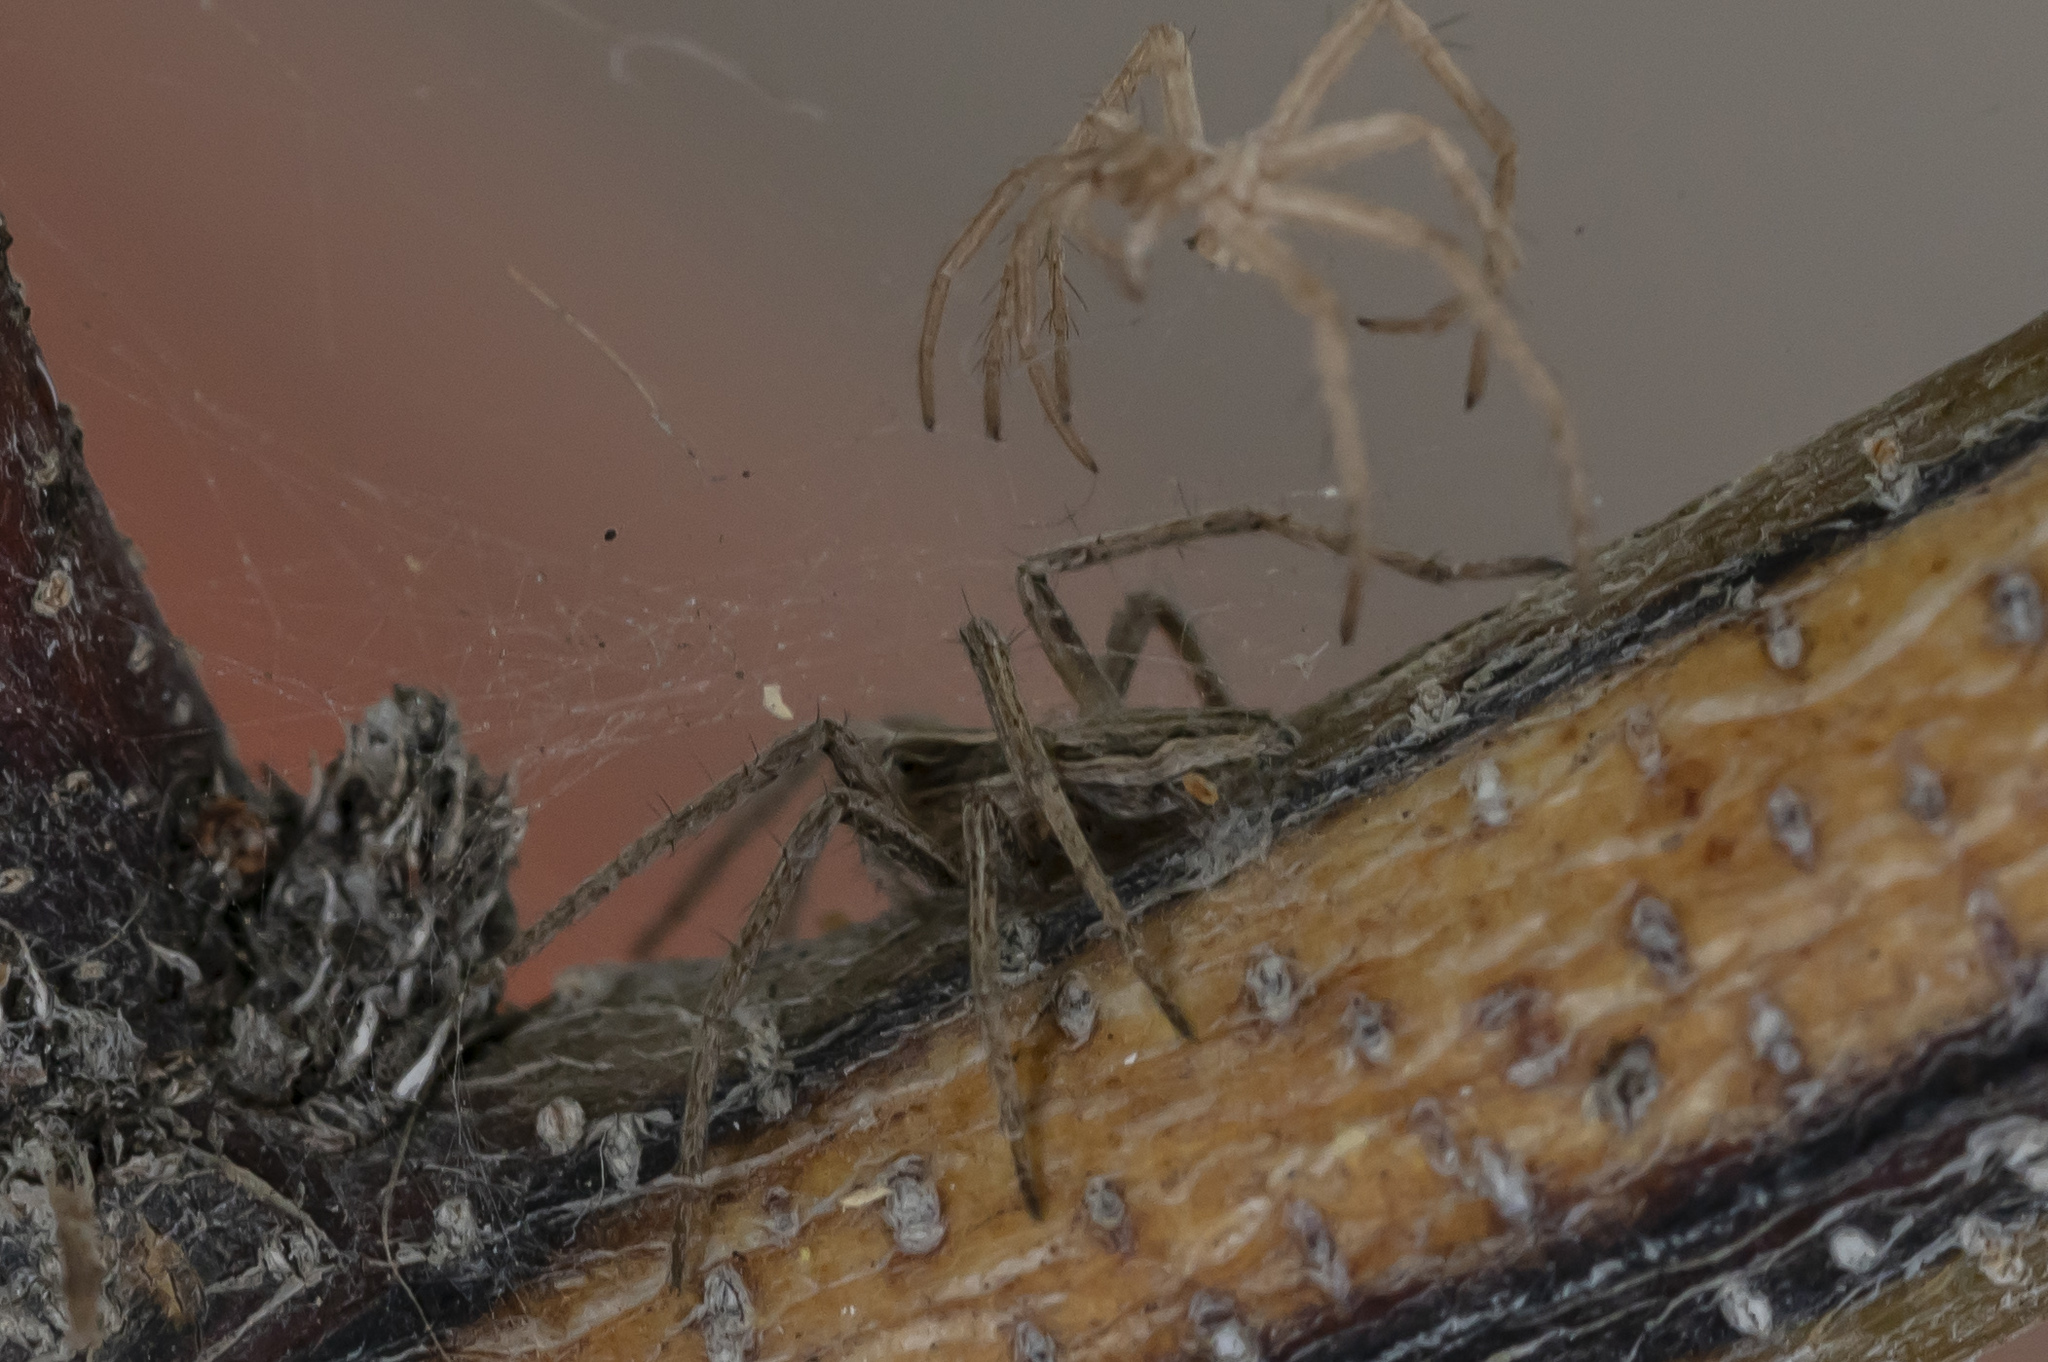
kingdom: Animalia
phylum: Arthropoda
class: Arachnida
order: Araneae
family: Pisauridae
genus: Pisaura
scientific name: Pisaura mirabilis
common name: Tent spider
